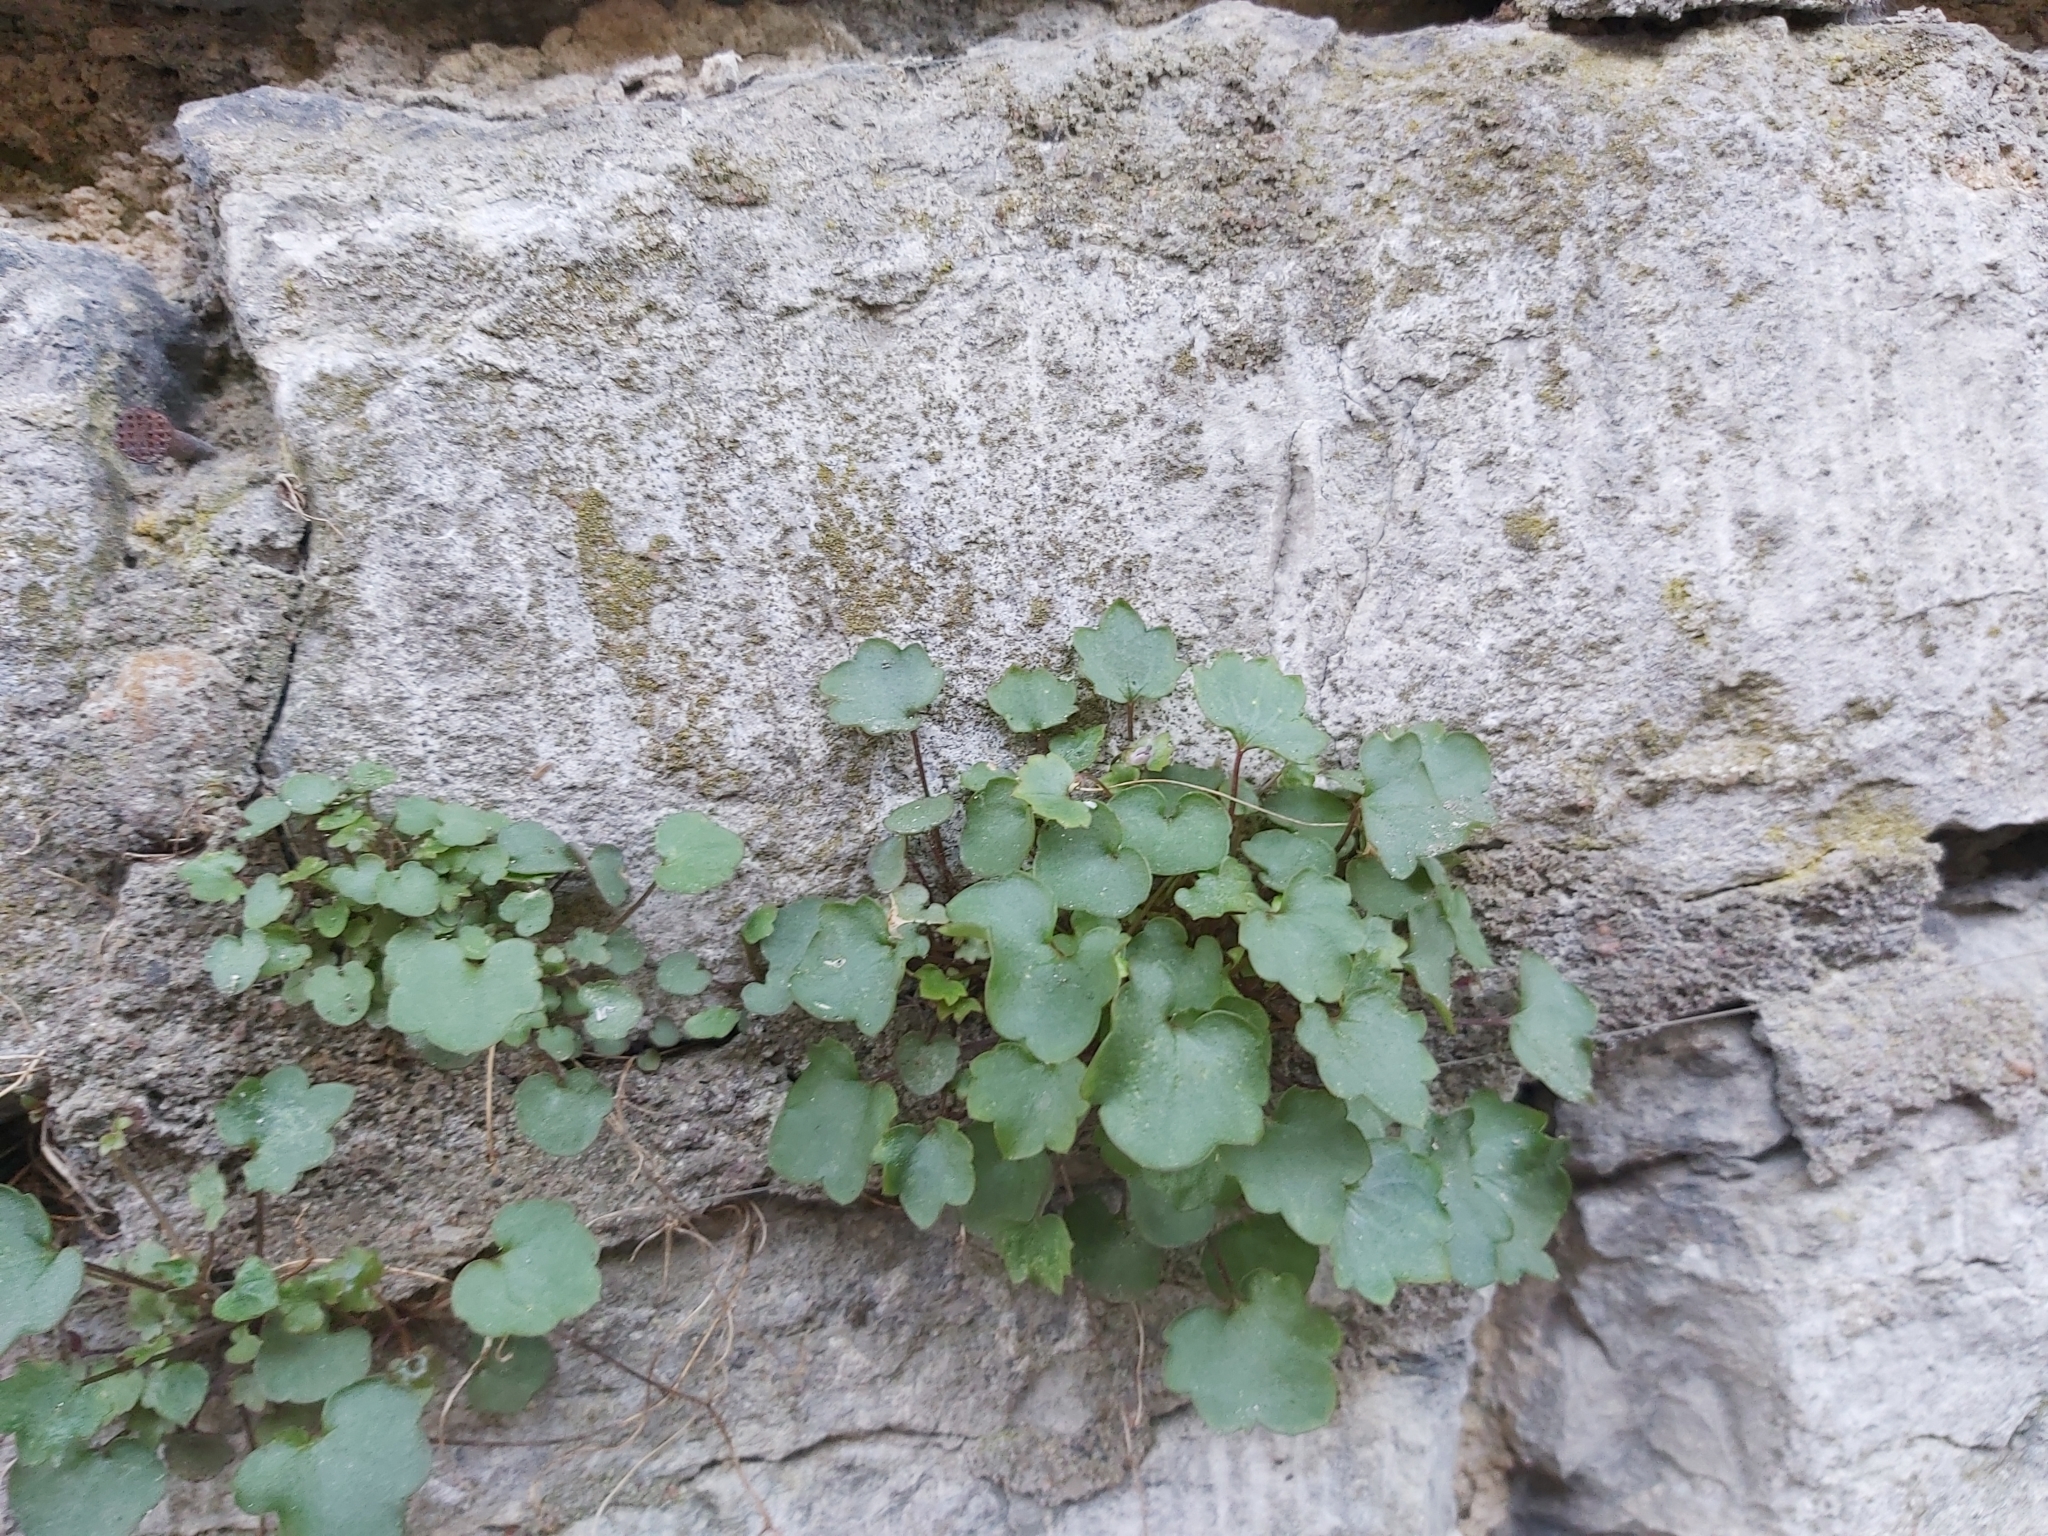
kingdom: Plantae
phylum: Tracheophyta
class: Magnoliopsida
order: Lamiales
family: Plantaginaceae
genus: Cymbalaria
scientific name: Cymbalaria muralis
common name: Ivy-leaved toadflax
